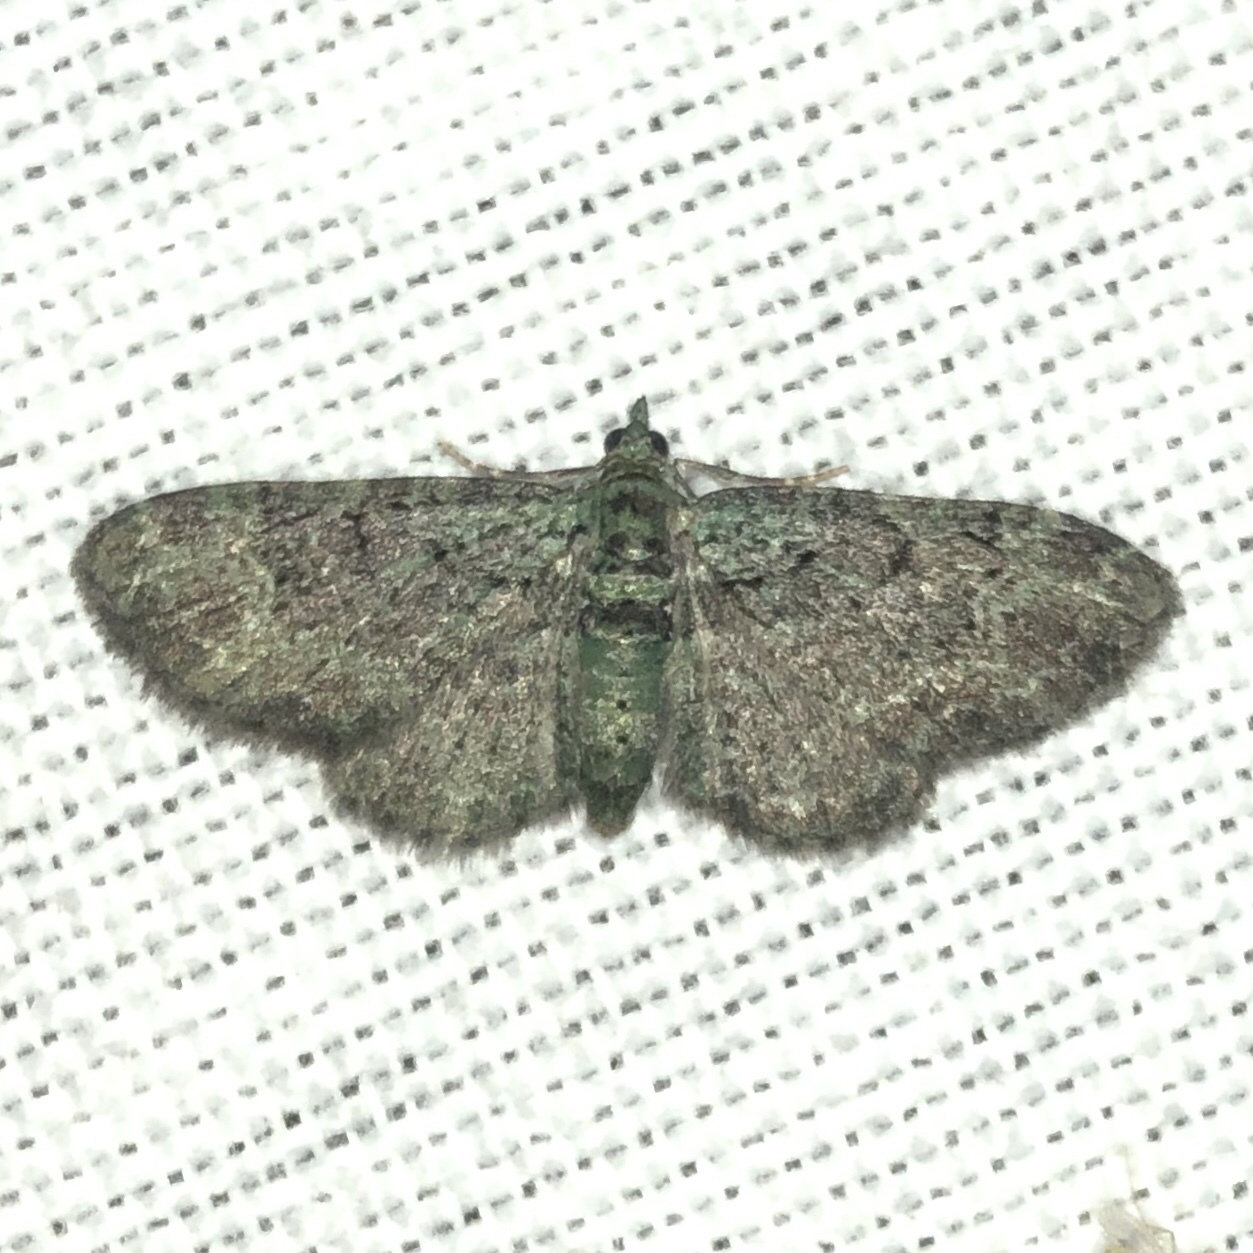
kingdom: Animalia
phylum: Arthropoda
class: Insecta
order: Lepidoptera
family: Geometridae
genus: Pasiphila
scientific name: Pasiphila rectangulata
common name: Green pug
